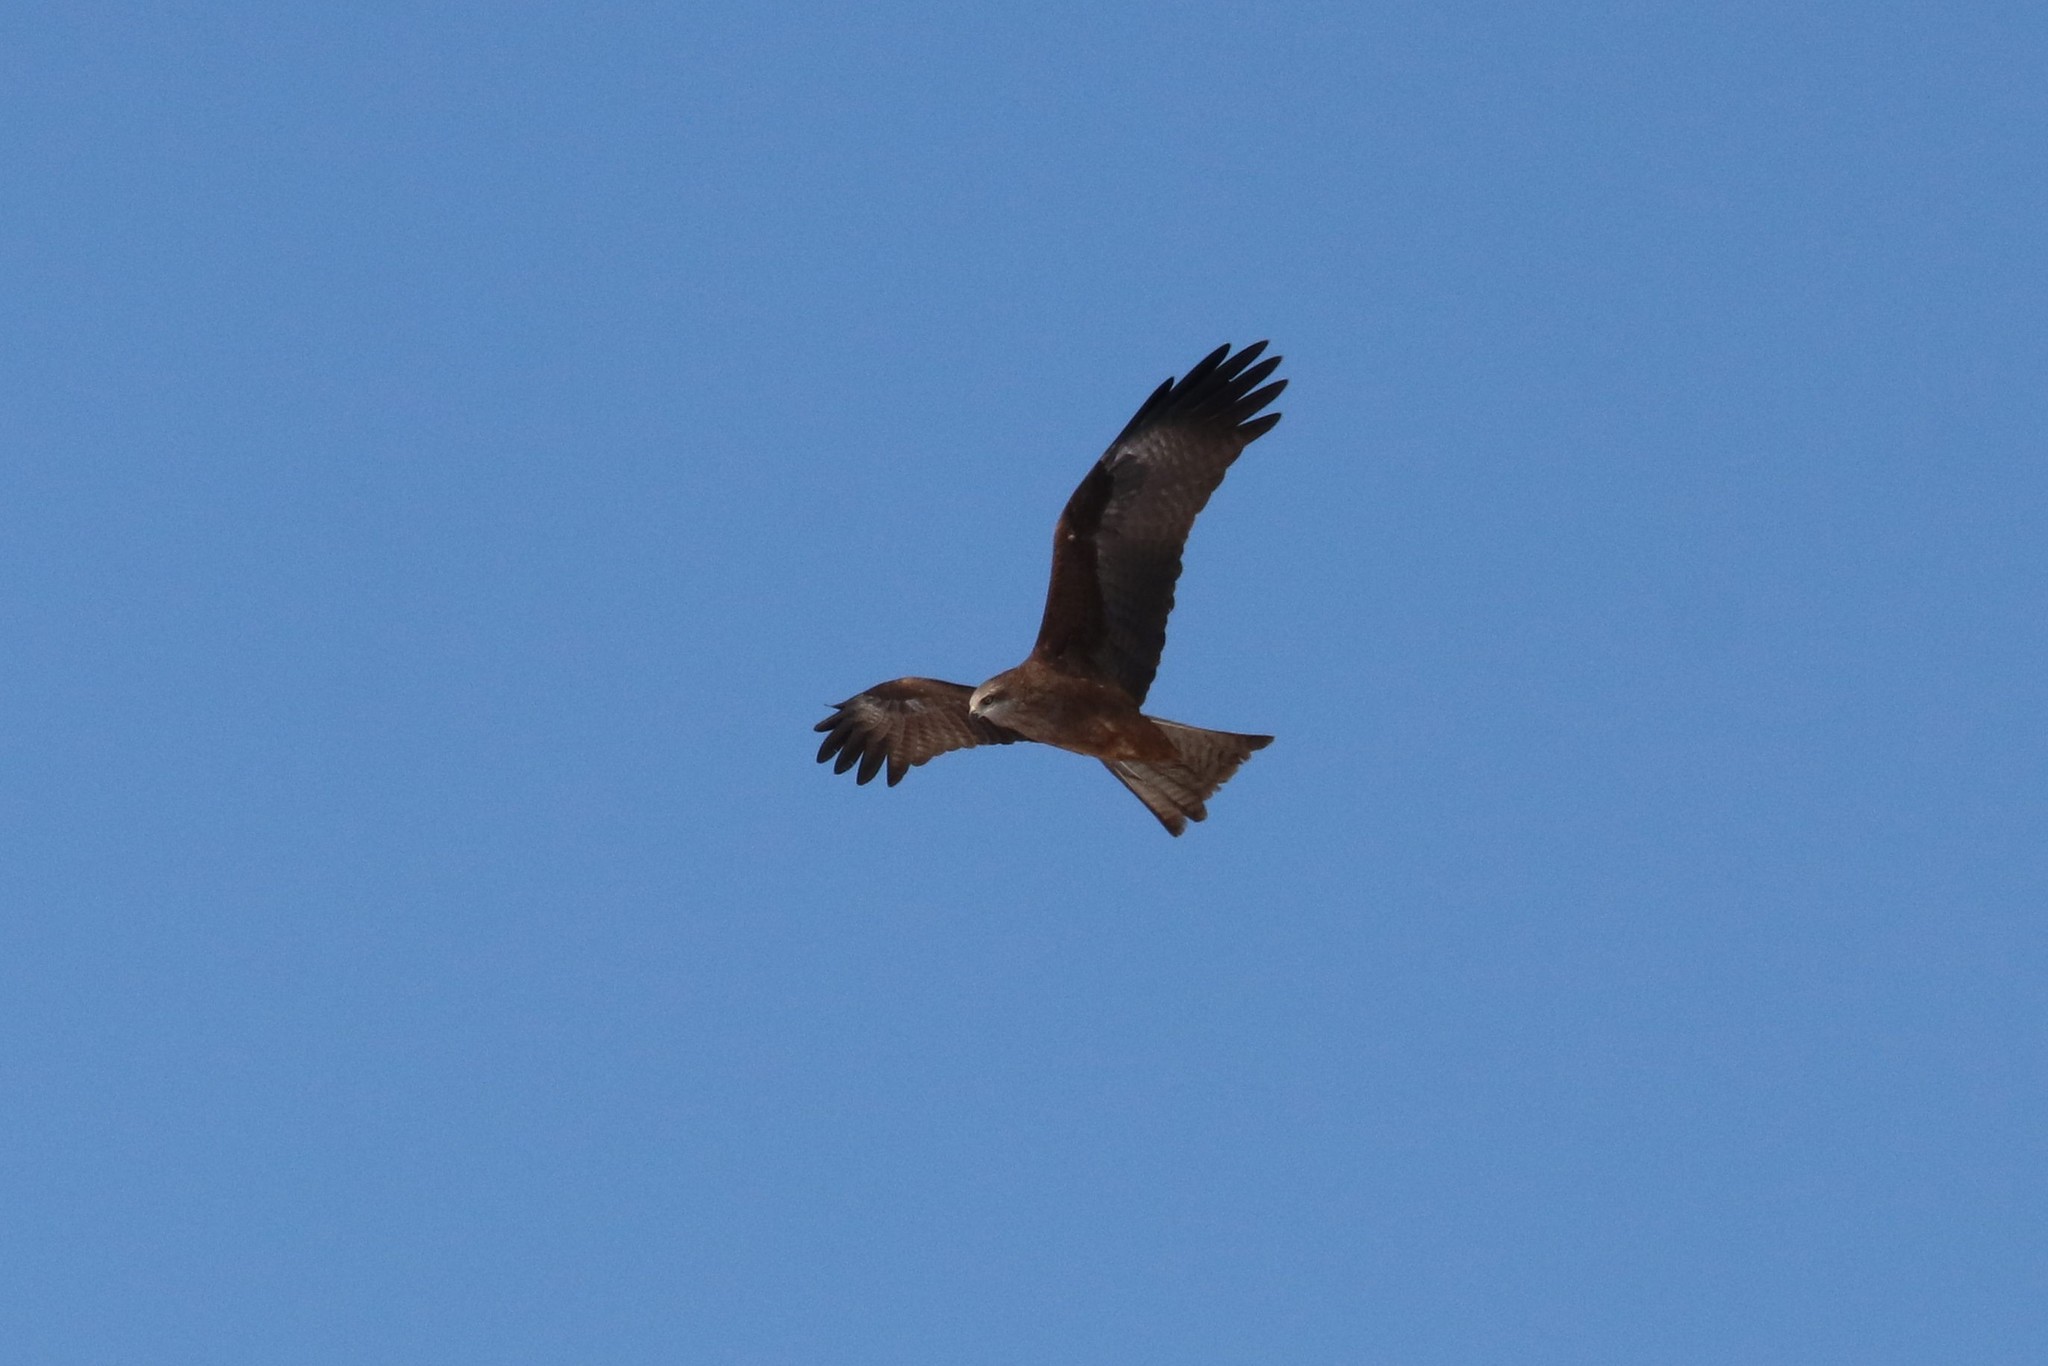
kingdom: Animalia
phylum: Chordata
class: Aves
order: Accipitriformes
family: Accipitridae
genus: Milvus
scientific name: Milvus migrans
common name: Black kite
